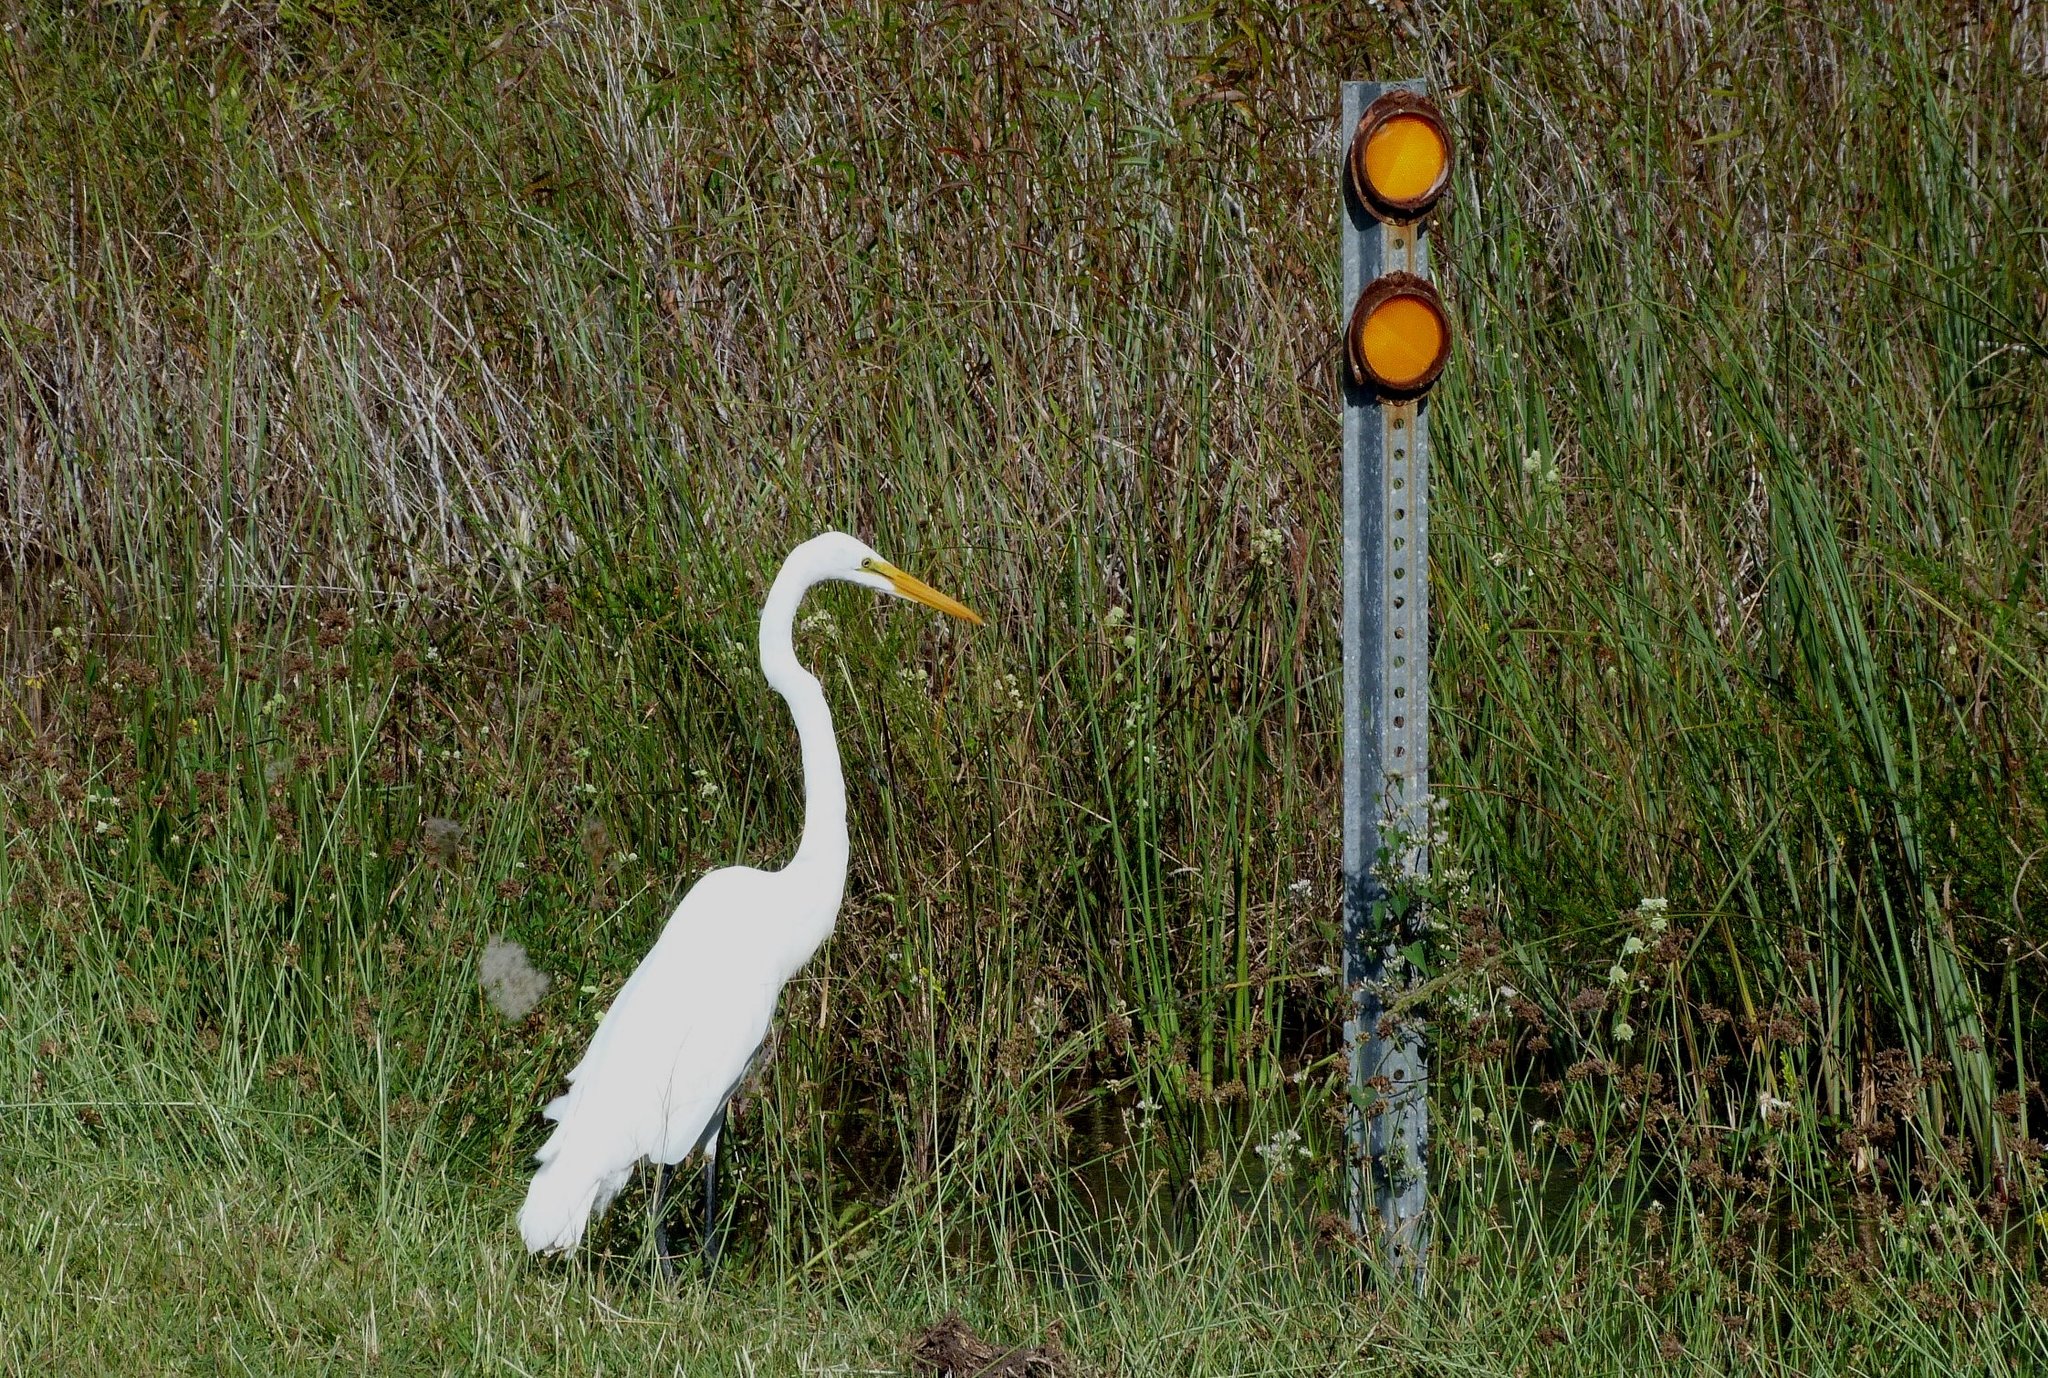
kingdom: Animalia
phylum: Chordata
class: Aves
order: Pelecaniformes
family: Ardeidae
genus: Ardea
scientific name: Ardea alba
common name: Great egret
